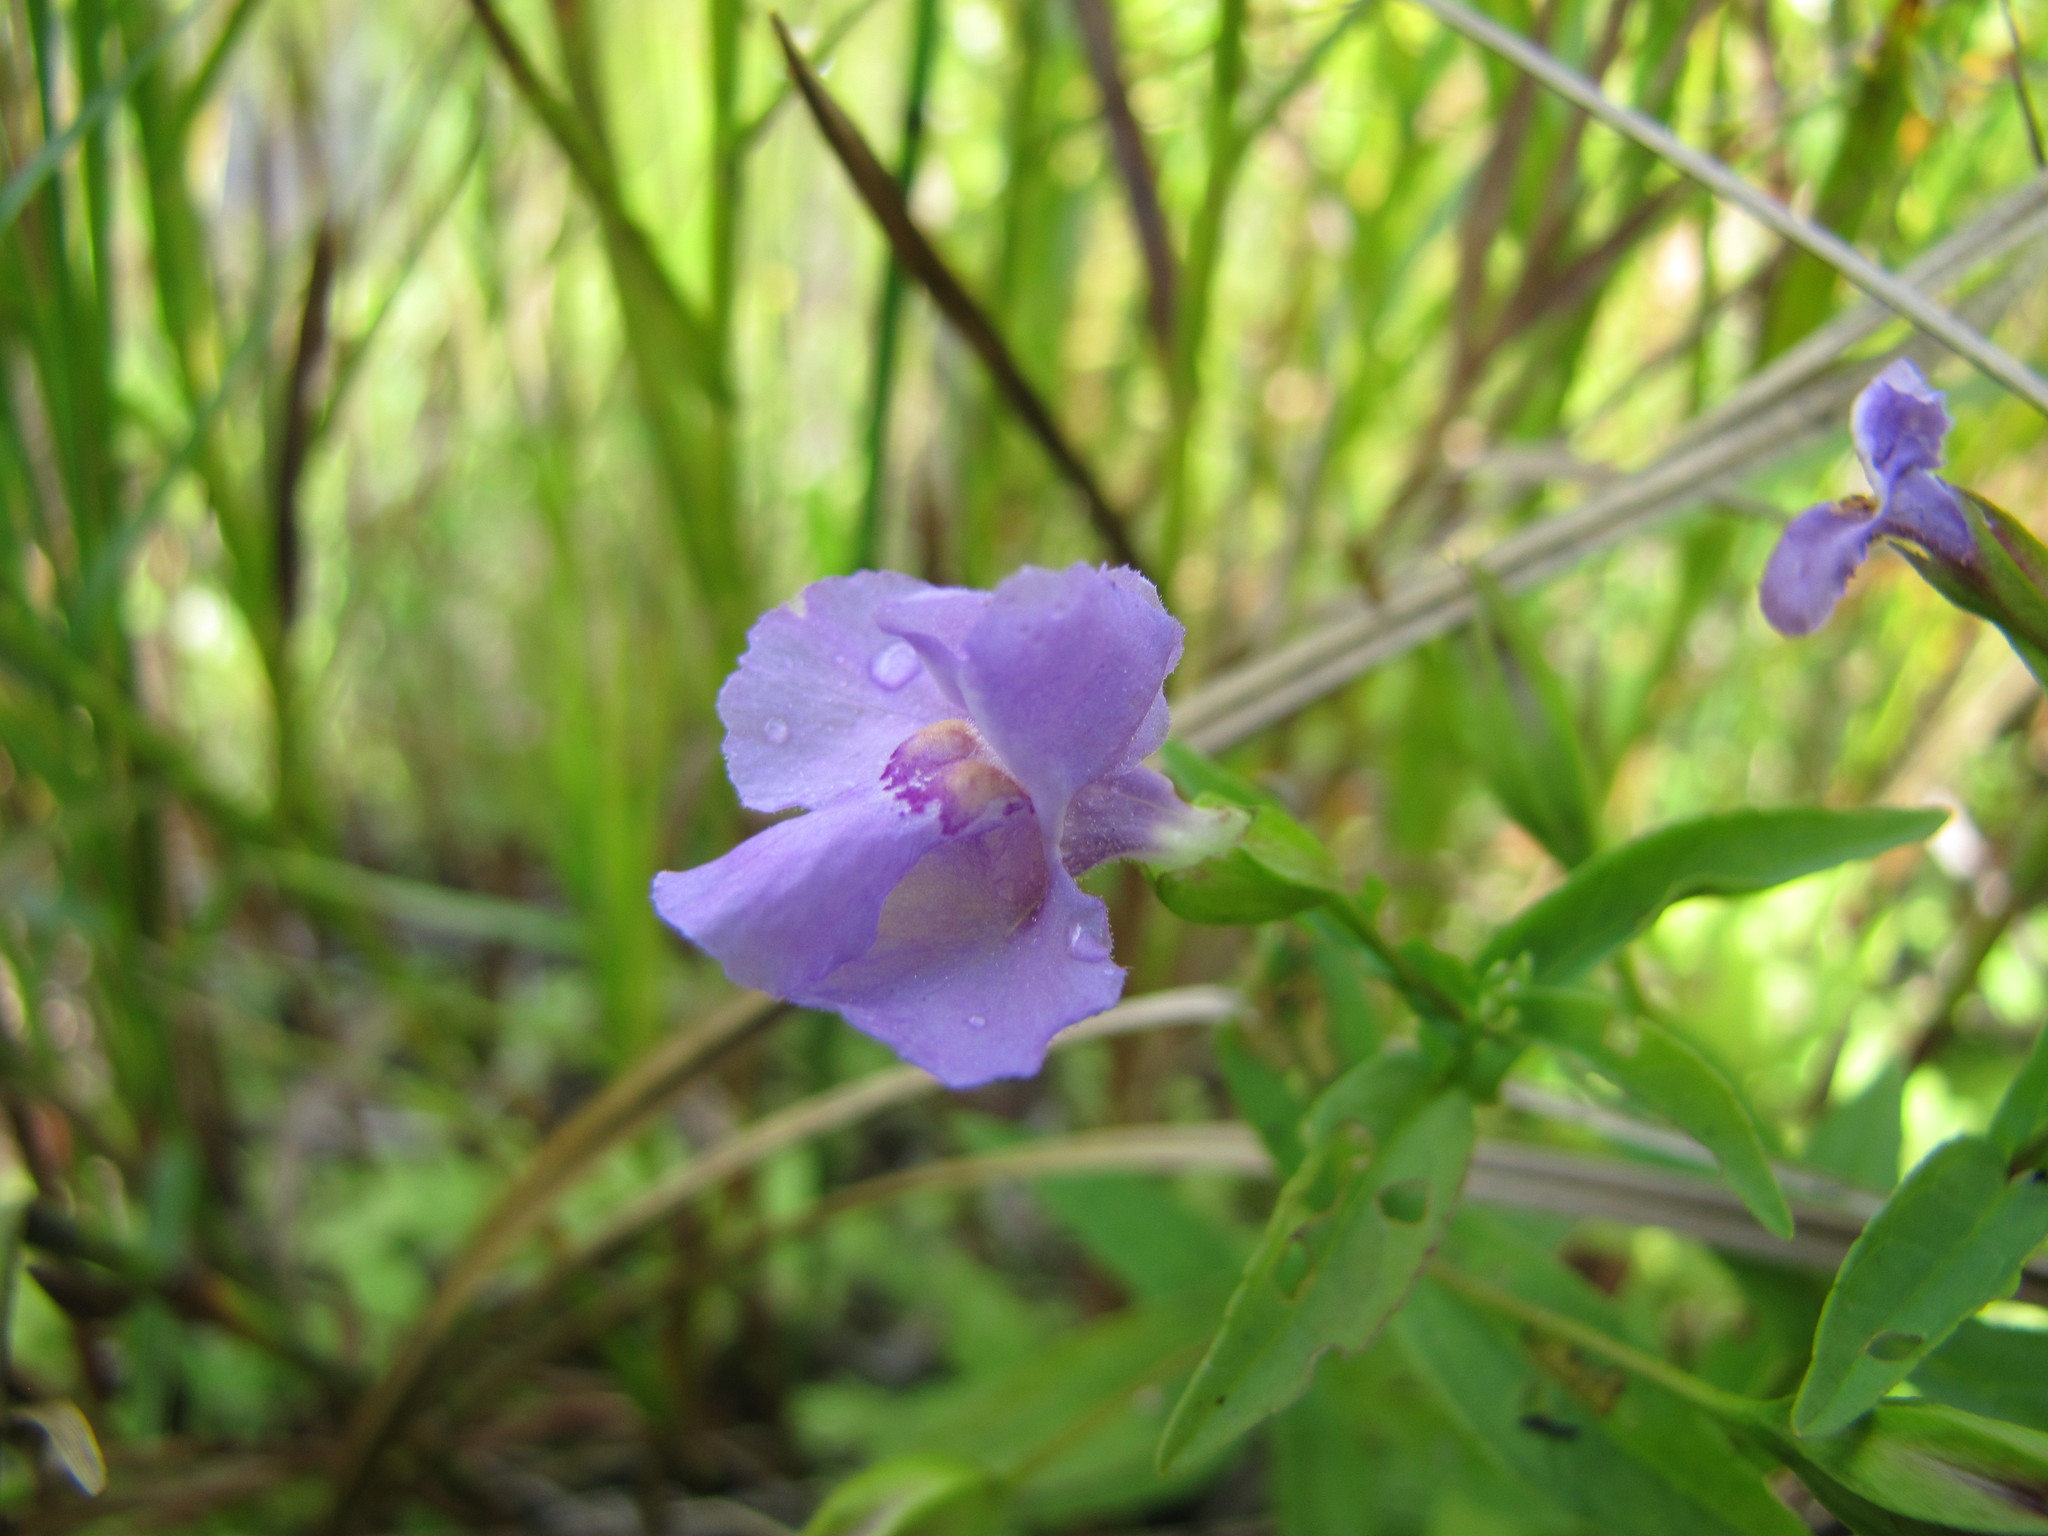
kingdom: Plantae
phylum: Tracheophyta
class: Magnoliopsida
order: Lamiales
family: Phrymaceae
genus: Mimulus
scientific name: Mimulus ringens
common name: Allegheny monkeyflower
